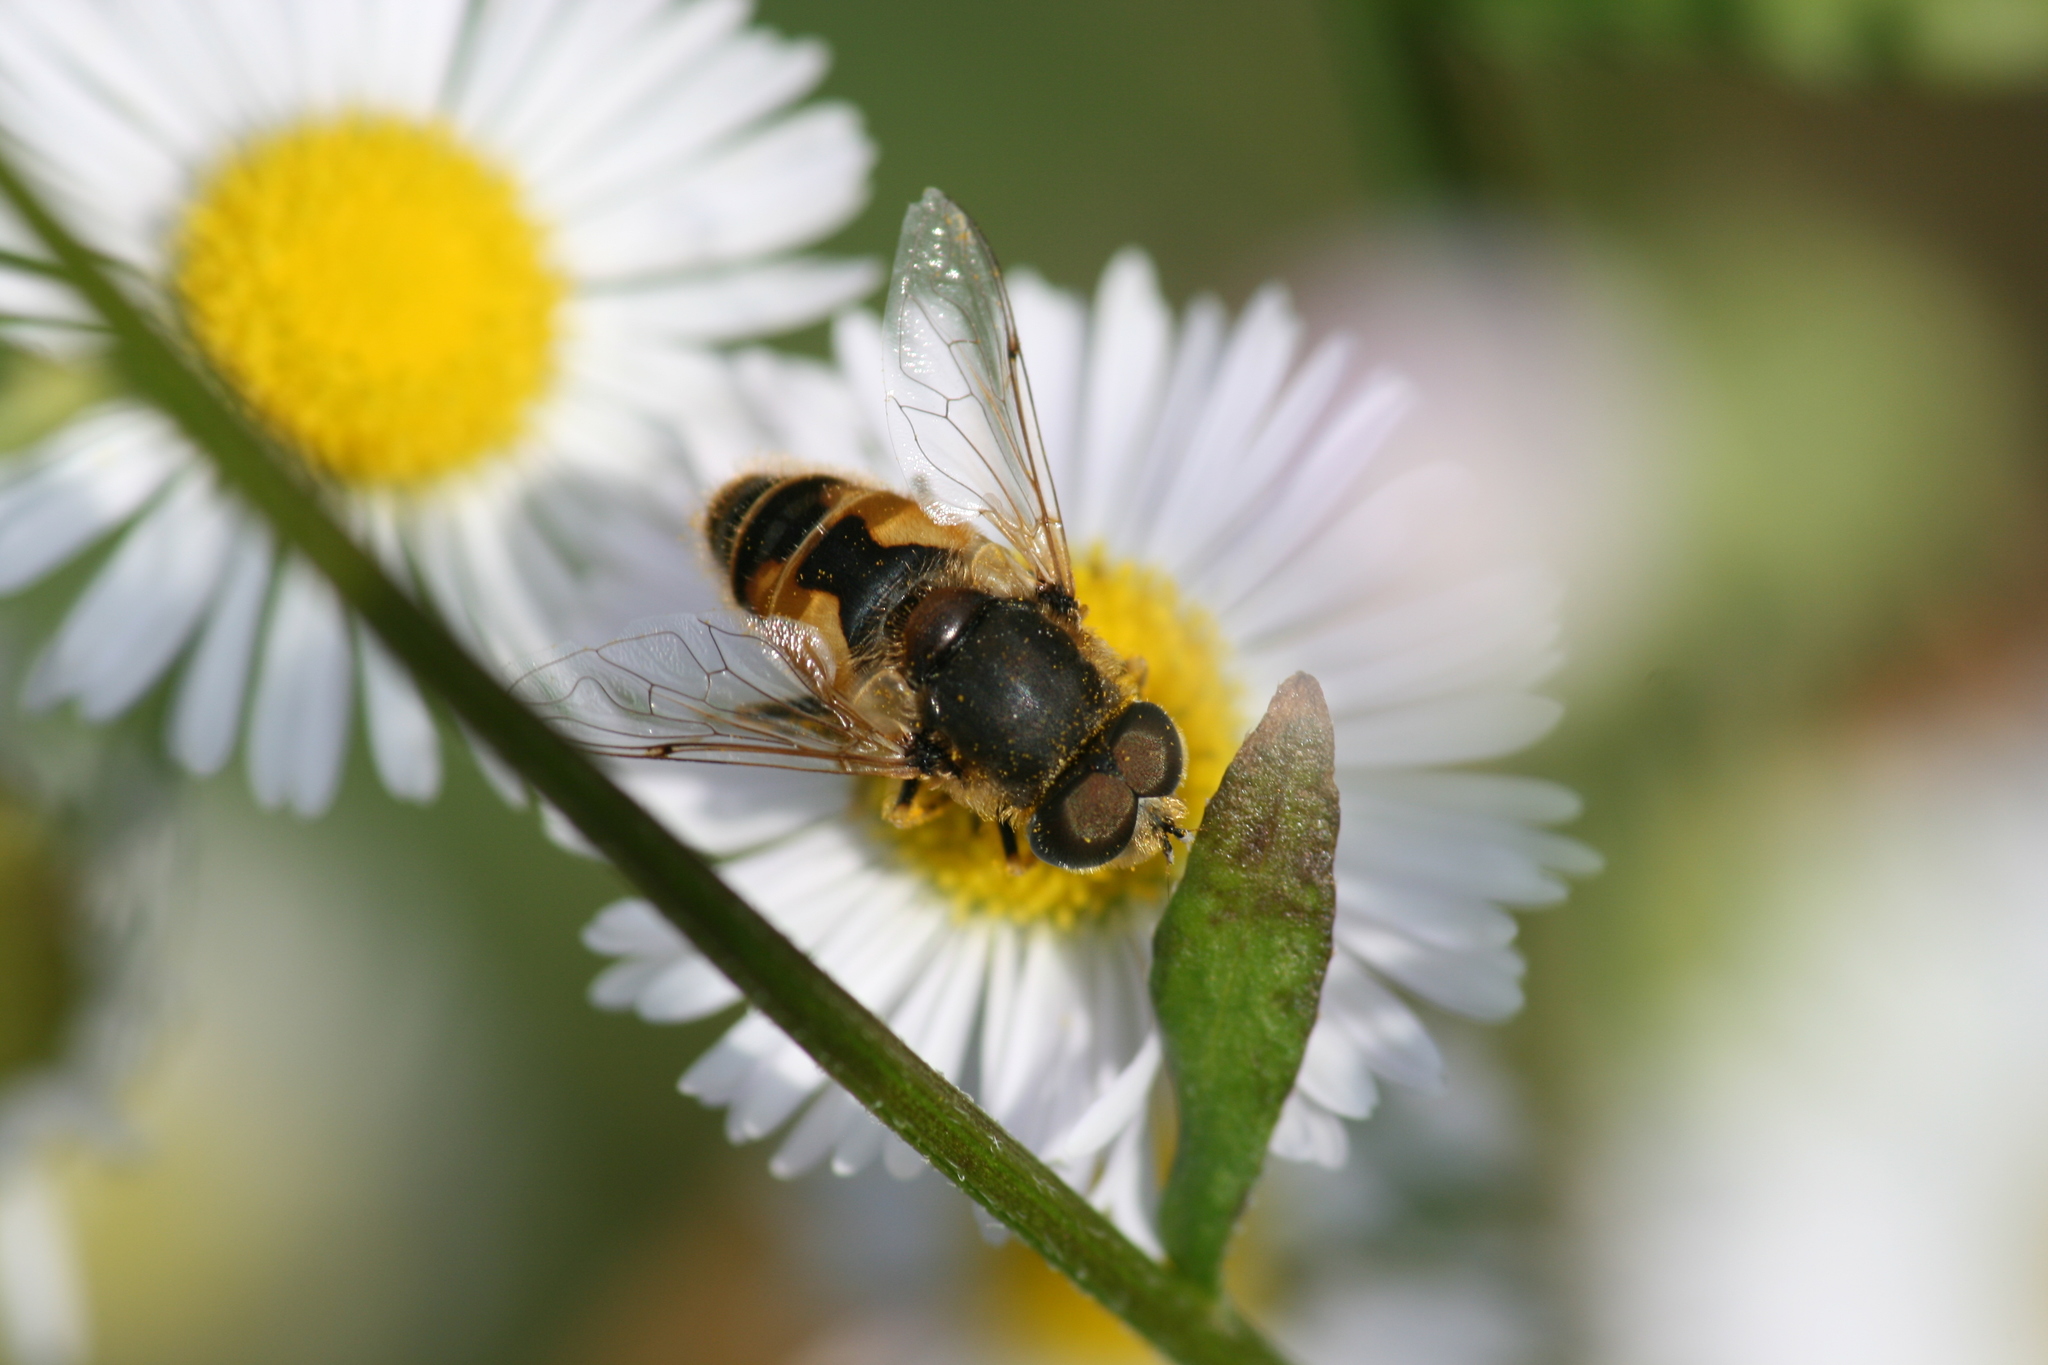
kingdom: Animalia
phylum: Arthropoda
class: Insecta
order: Diptera
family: Syrphidae
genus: Eristalis
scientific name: Eristalis arbustorum
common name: Hover fly
